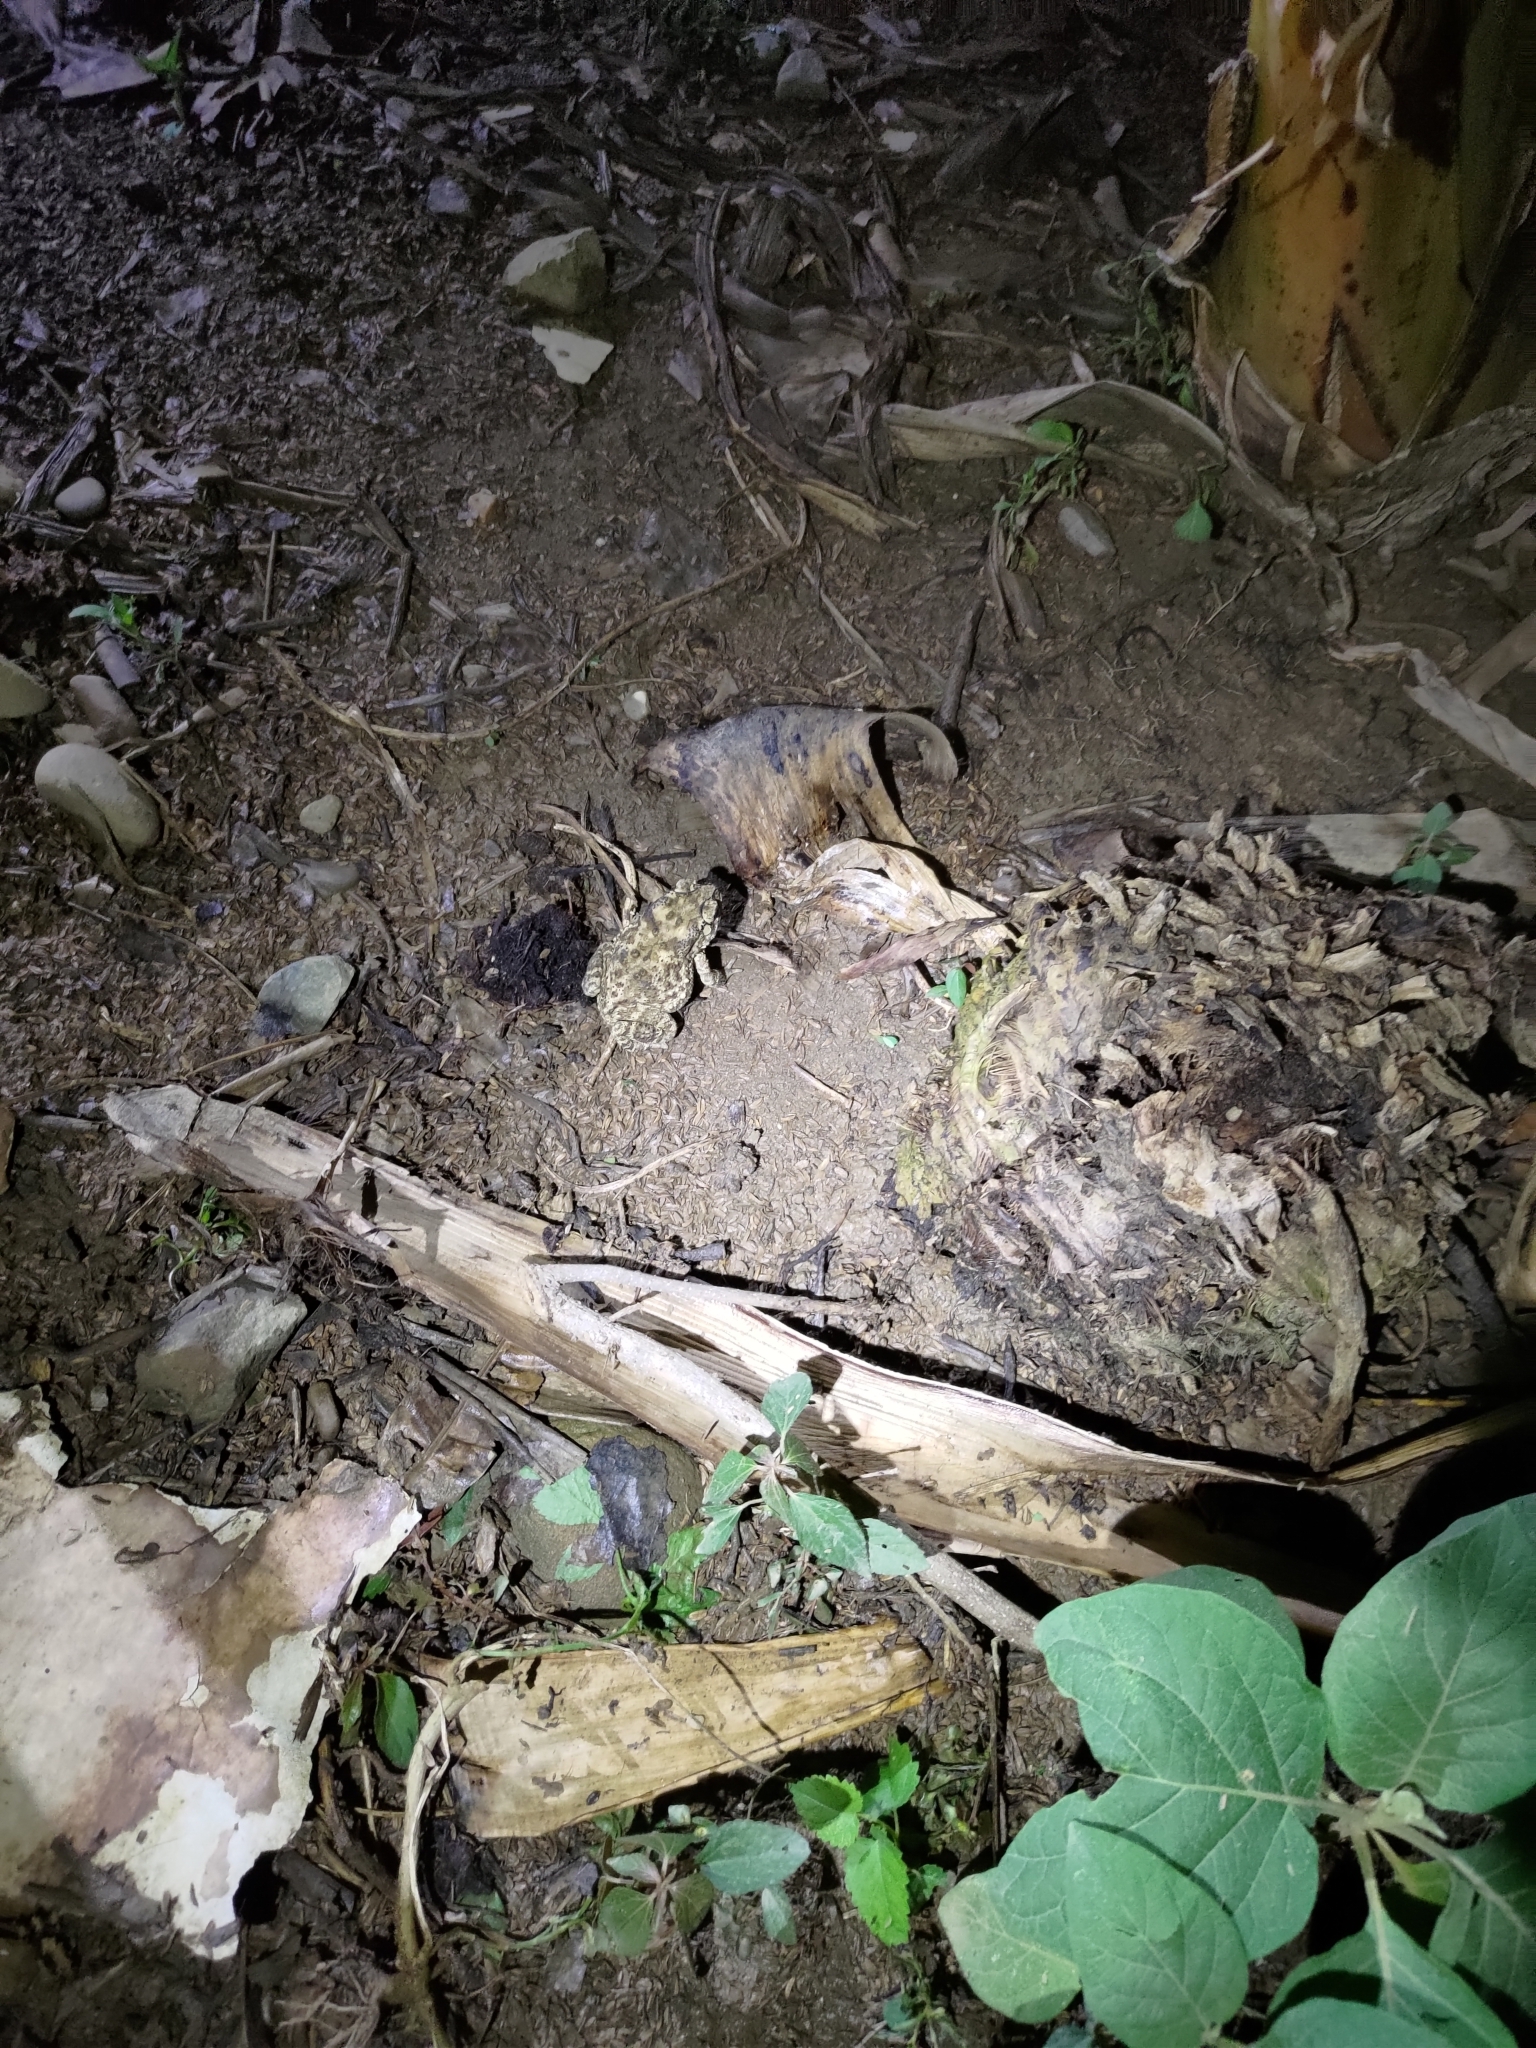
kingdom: Animalia
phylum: Chordata
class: Amphibia
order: Anura
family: Bufonidae
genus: Duttaphrynus
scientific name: Duttaphrynus melanostictus
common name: Common sunda toad
